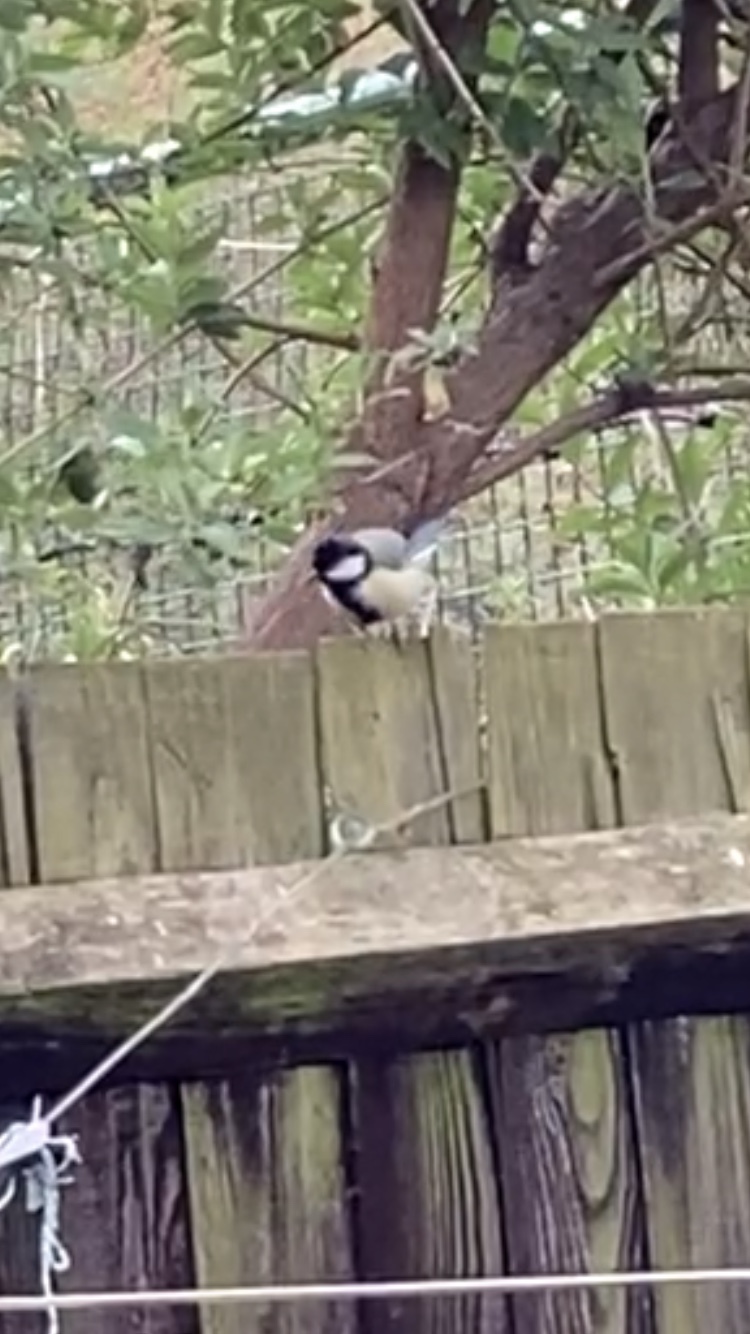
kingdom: Animalia
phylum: Chordata
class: Aves
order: Passeriformes
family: Paridae
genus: Parus
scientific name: Parus major
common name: Great tit
